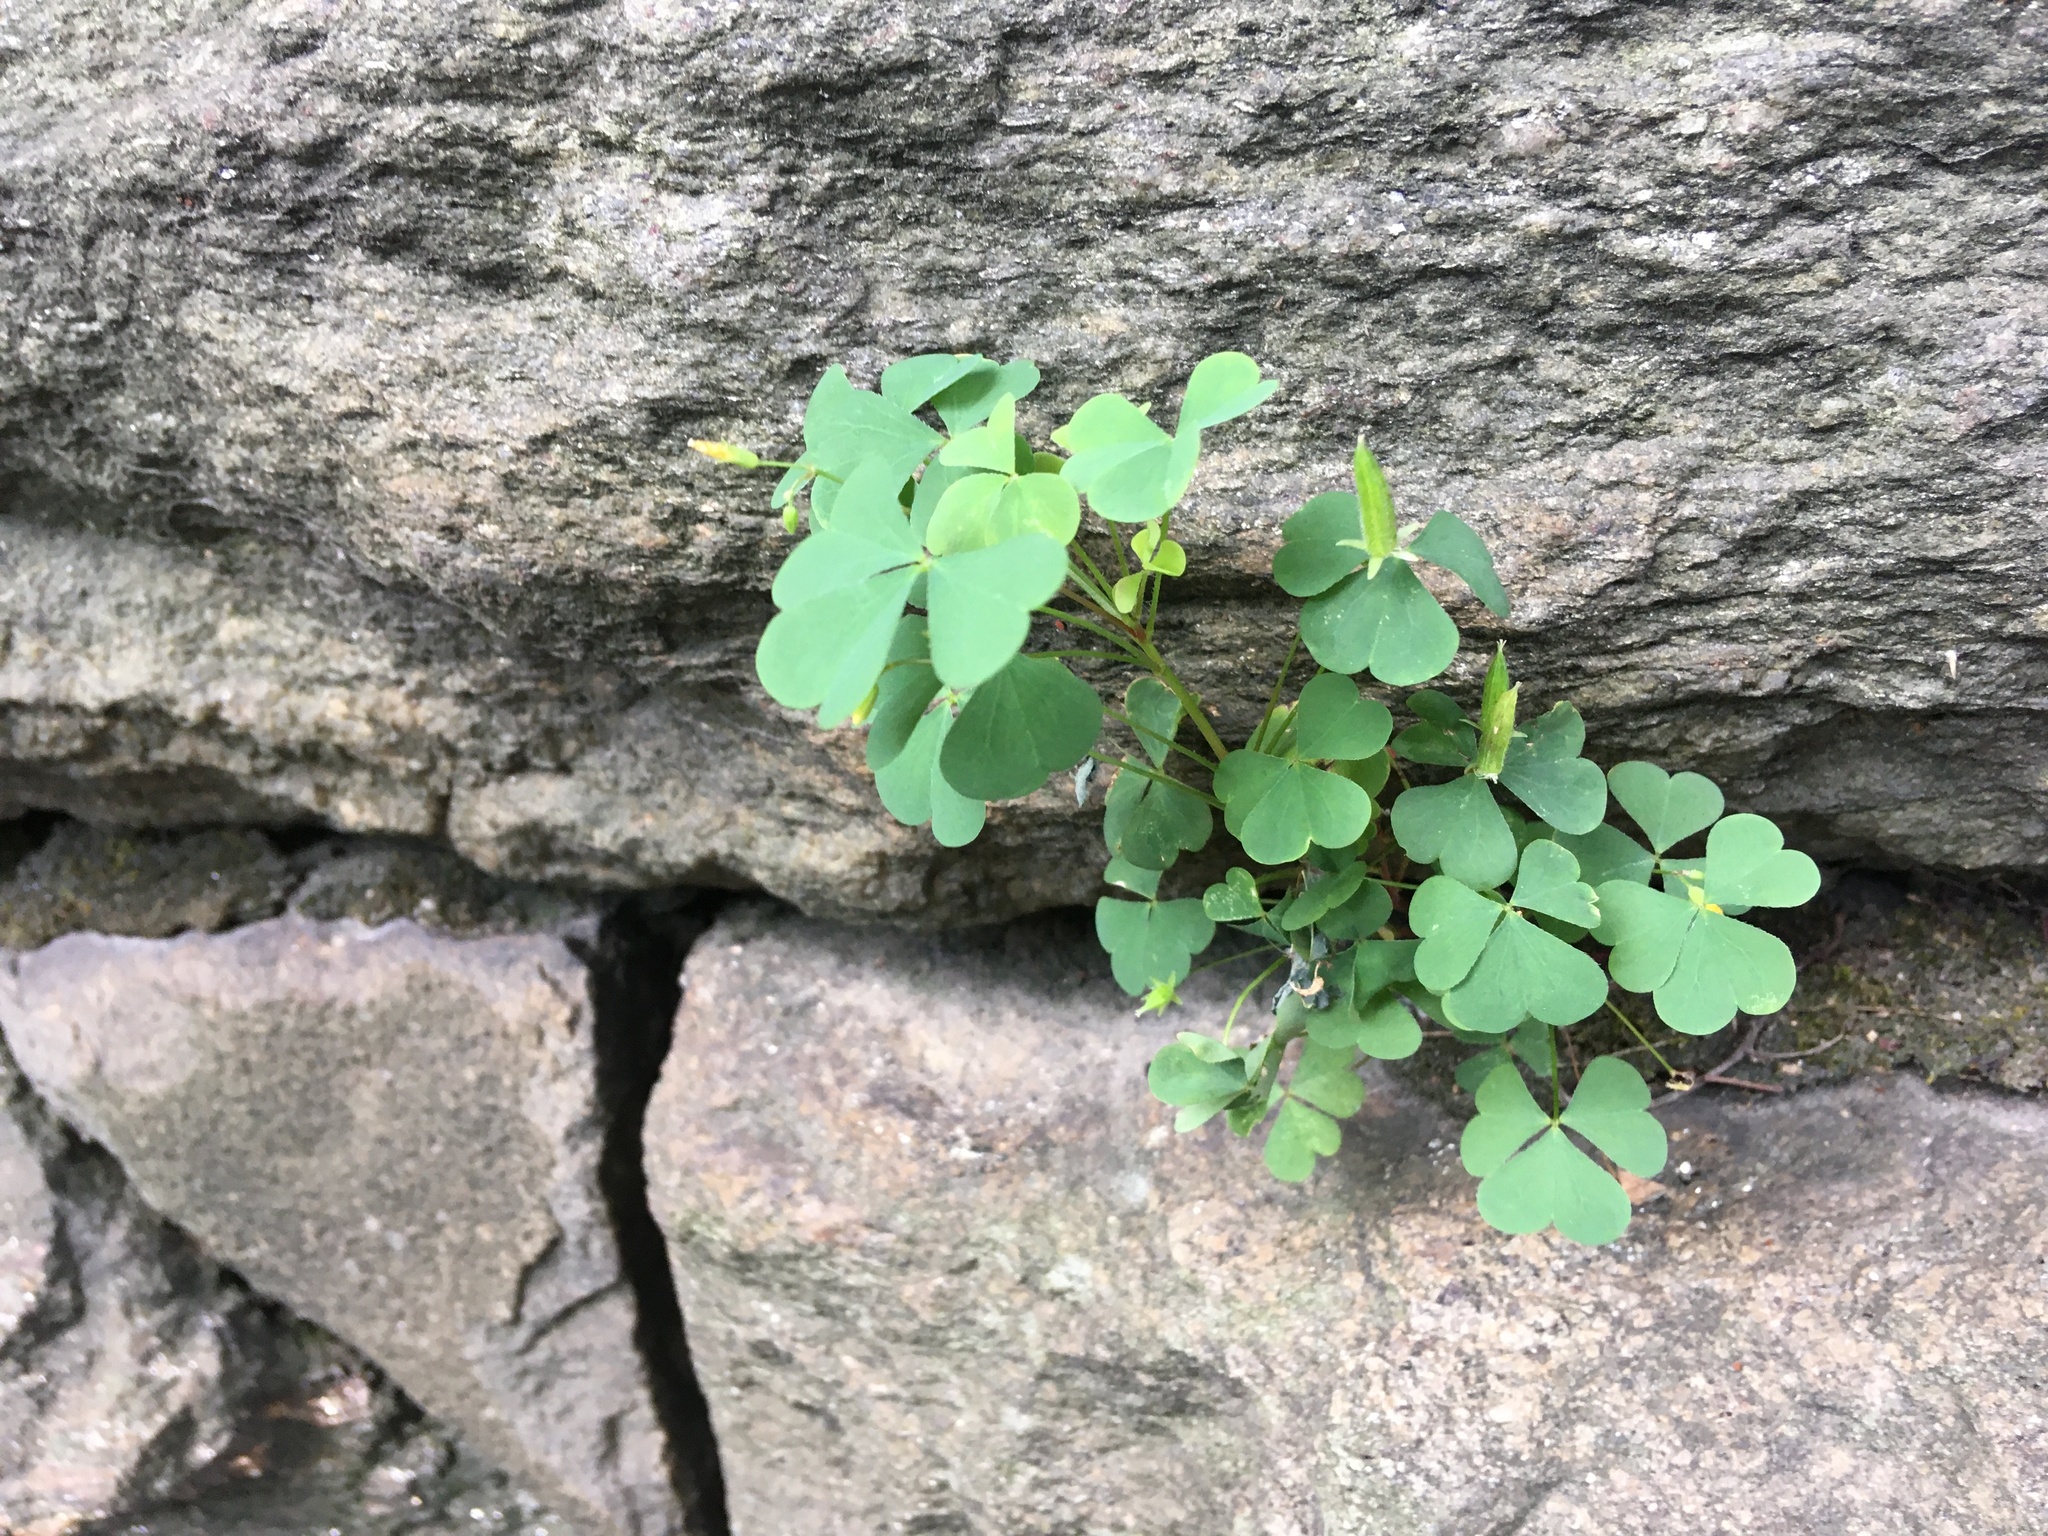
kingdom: Plantae
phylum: Tracheophyta
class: Magnoliopsida
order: Oxalidales
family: Oxalidaceae
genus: Oxalis
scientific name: Oxalis corniculata
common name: Procumbent yellow-sorrel
